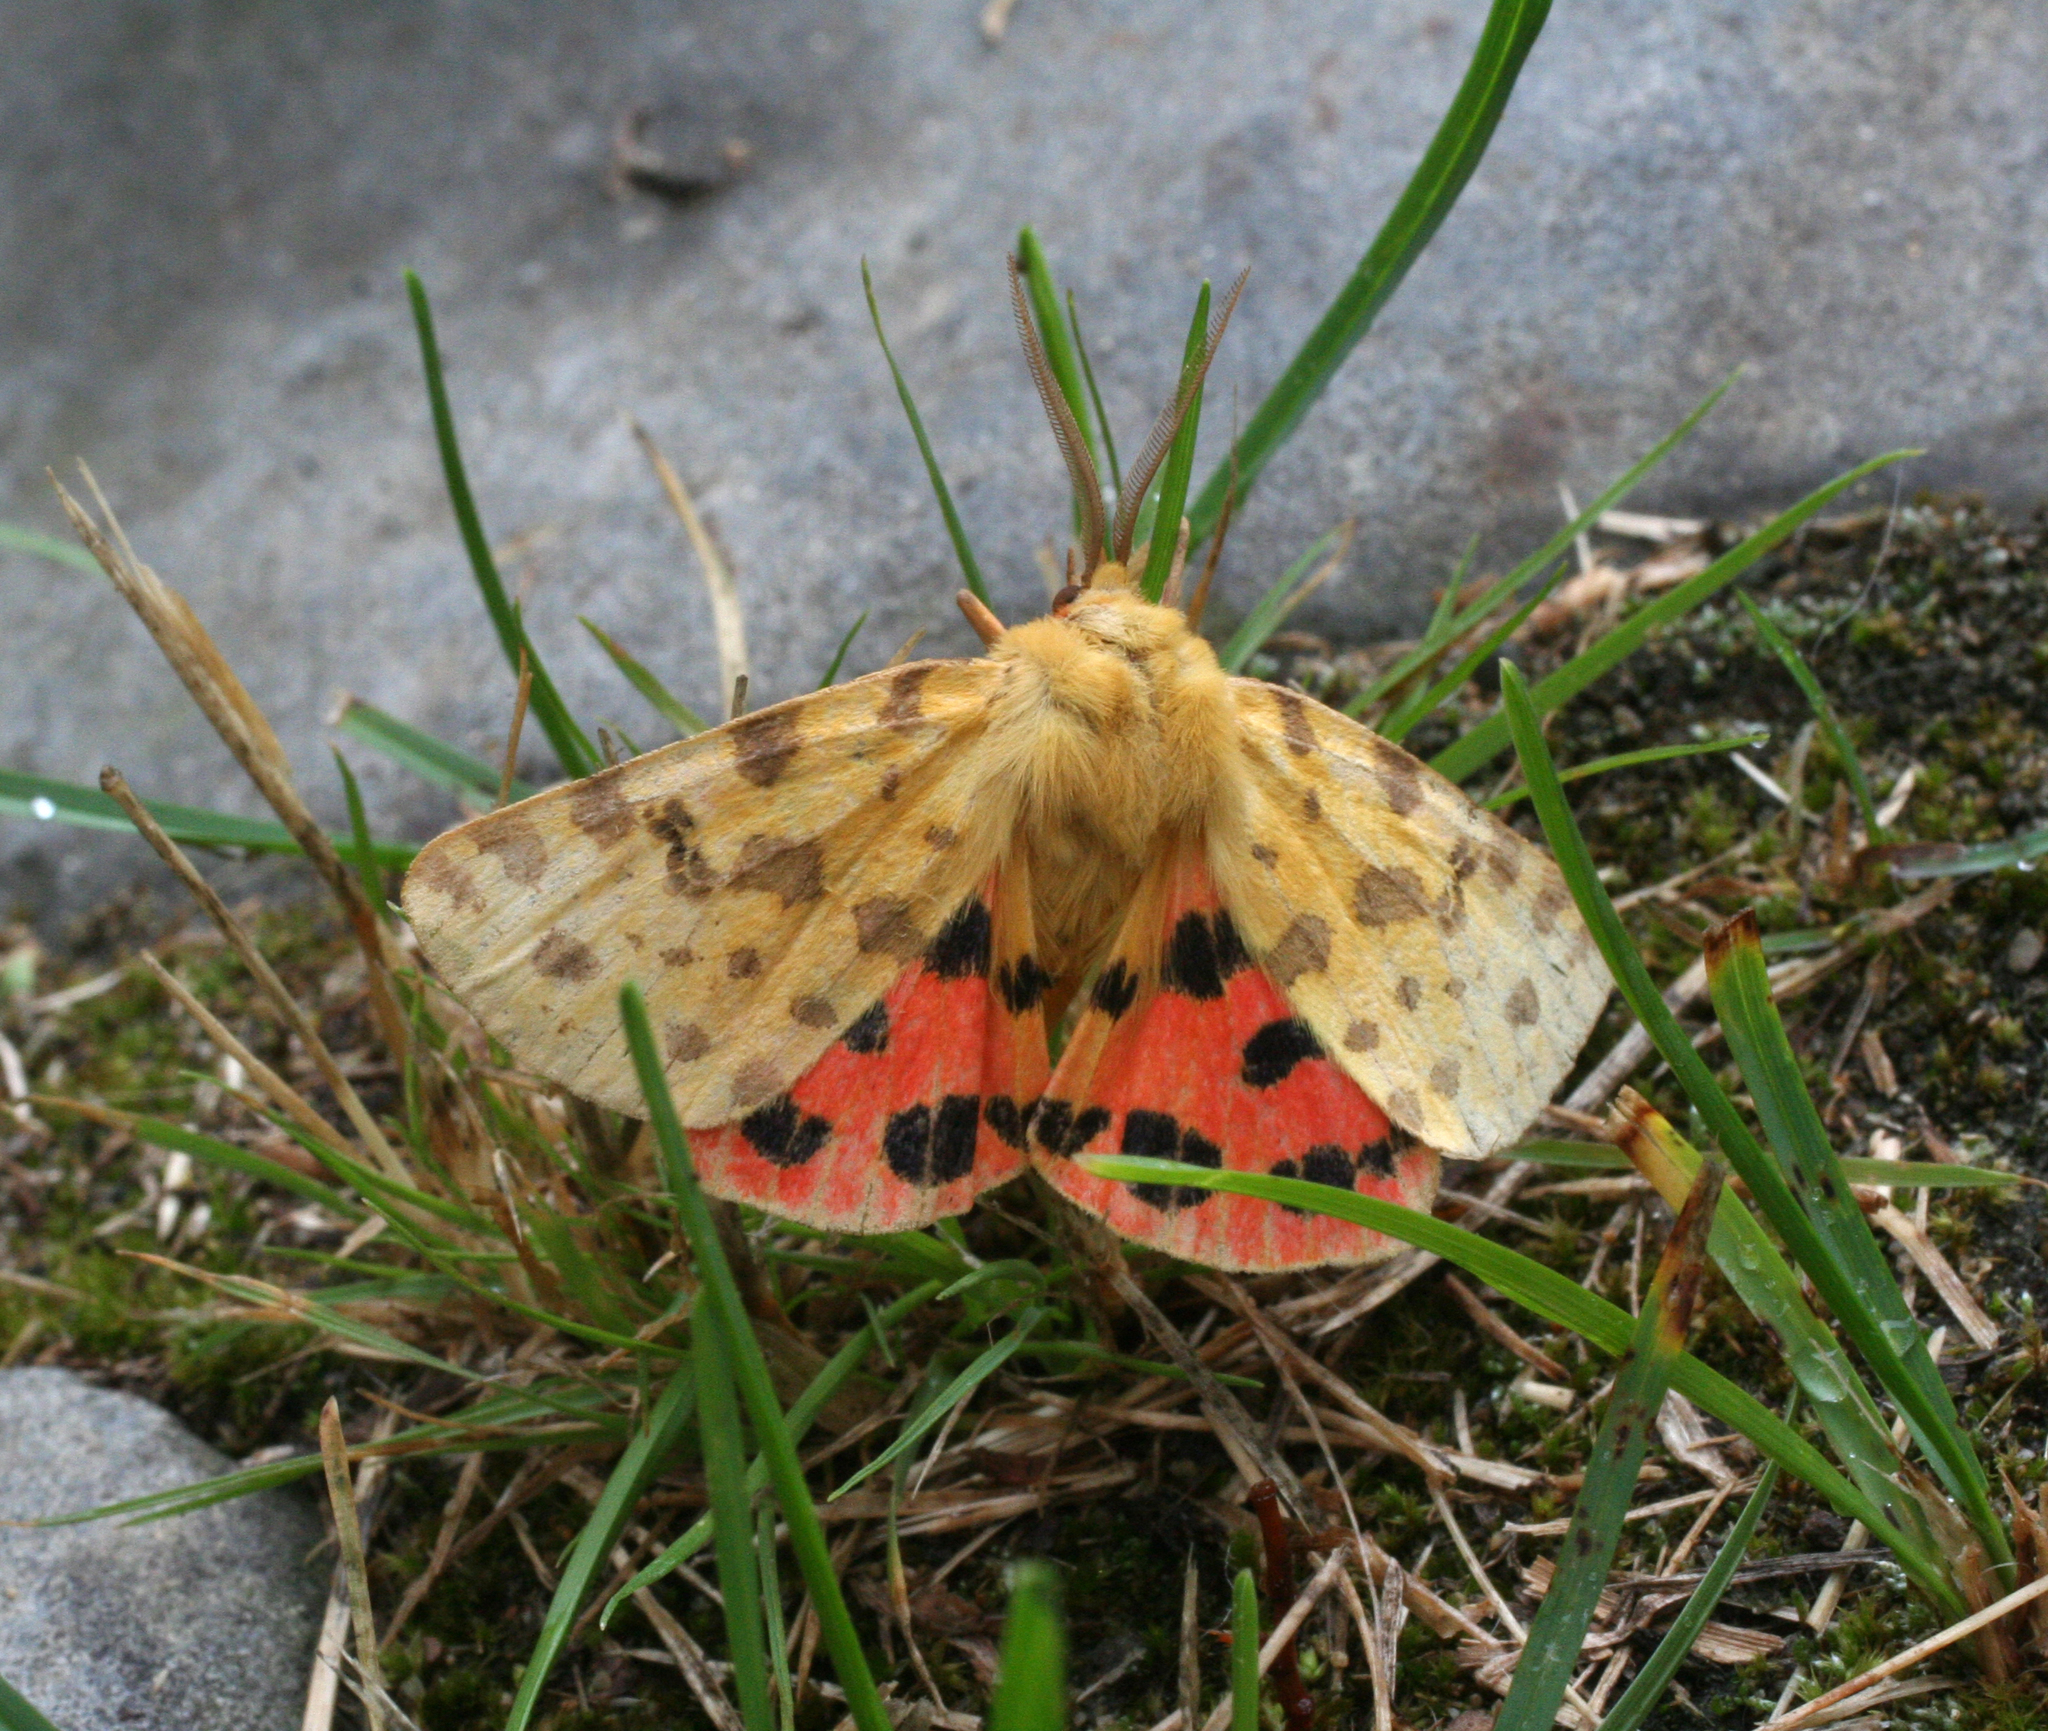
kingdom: Animalia
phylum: Arthropoda
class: Insecta
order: Lepidoptera
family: Erebidae
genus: Rhyparia
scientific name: Rhyparia purpurata
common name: Purple tiger
